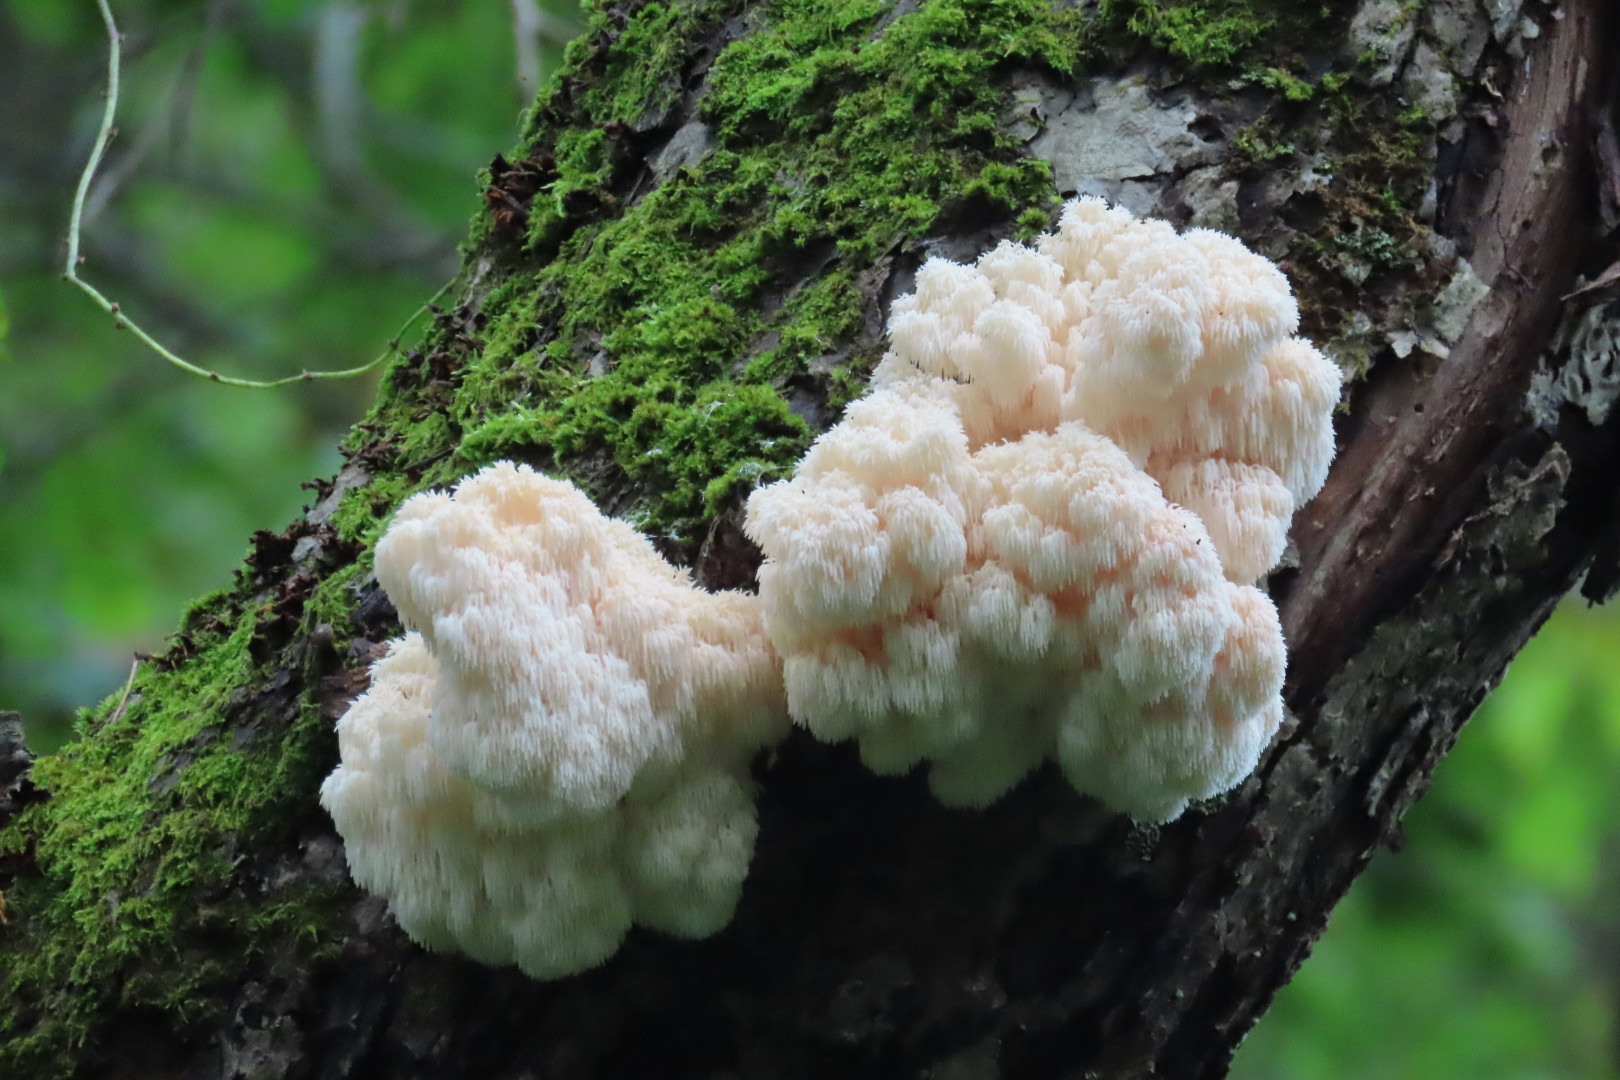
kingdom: Fungi
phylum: Basidiomycota
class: Agaricomycetes
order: Russulales
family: Hericiaceae
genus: Hericium
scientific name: Hericium americanum
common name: Bear's head tooth
